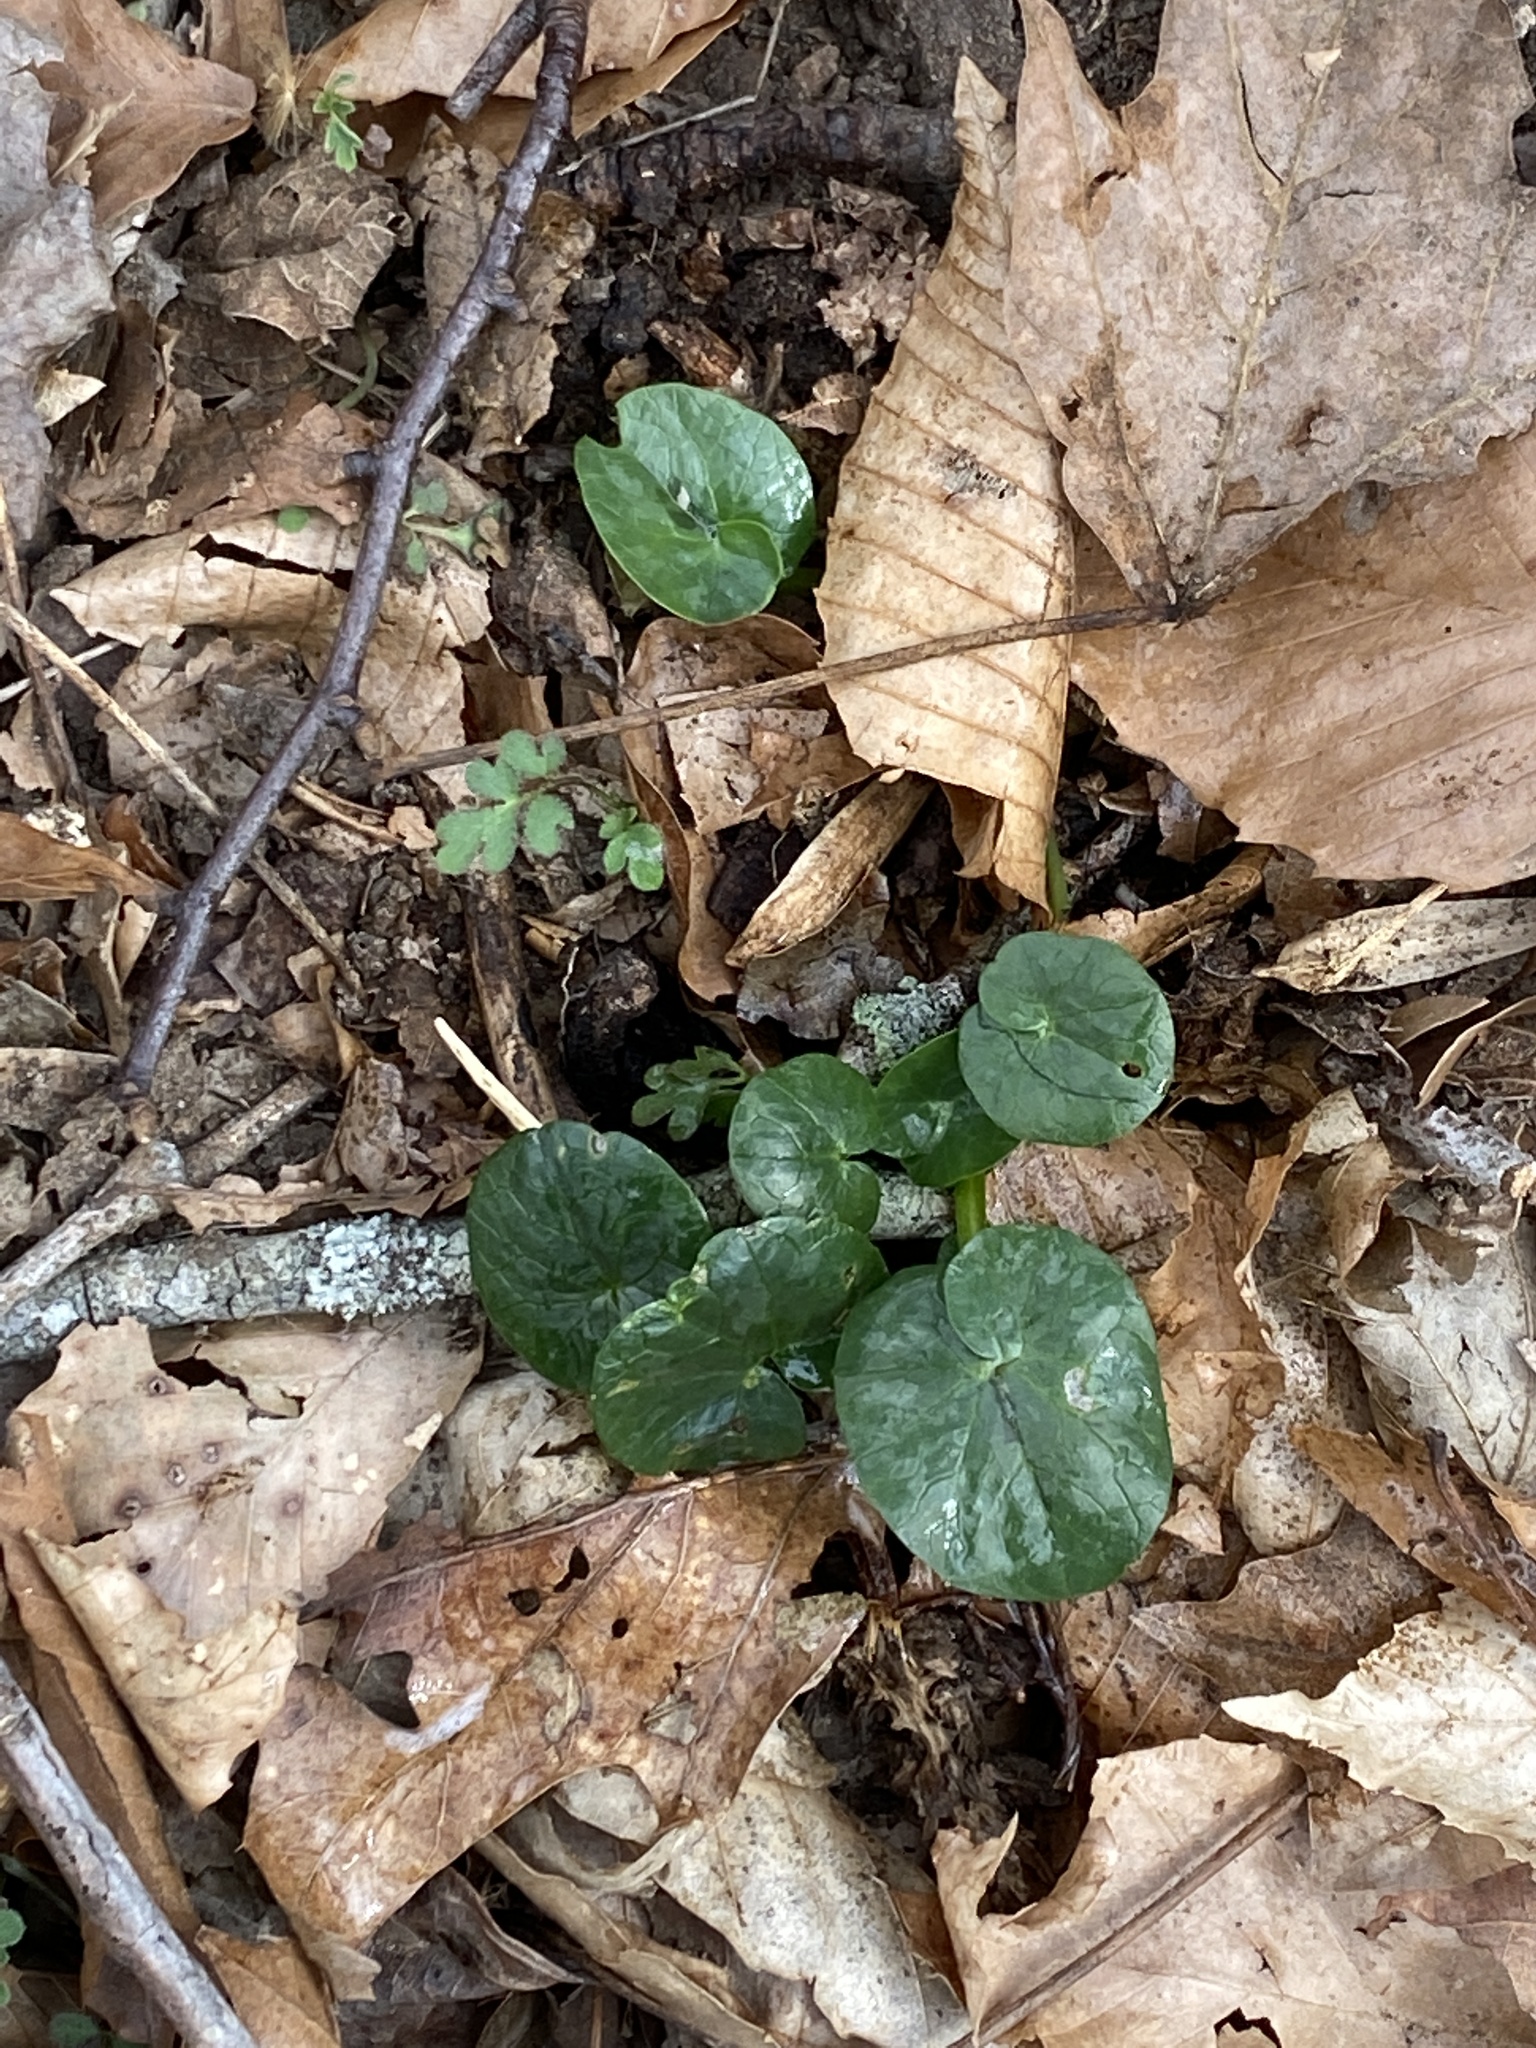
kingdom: Plantae
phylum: Tracheophyta
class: Magnoliopsida
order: Ranunculales
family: Ranunculaceae
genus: Ficaria
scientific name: Ficaria verna
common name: Lesser celandine
